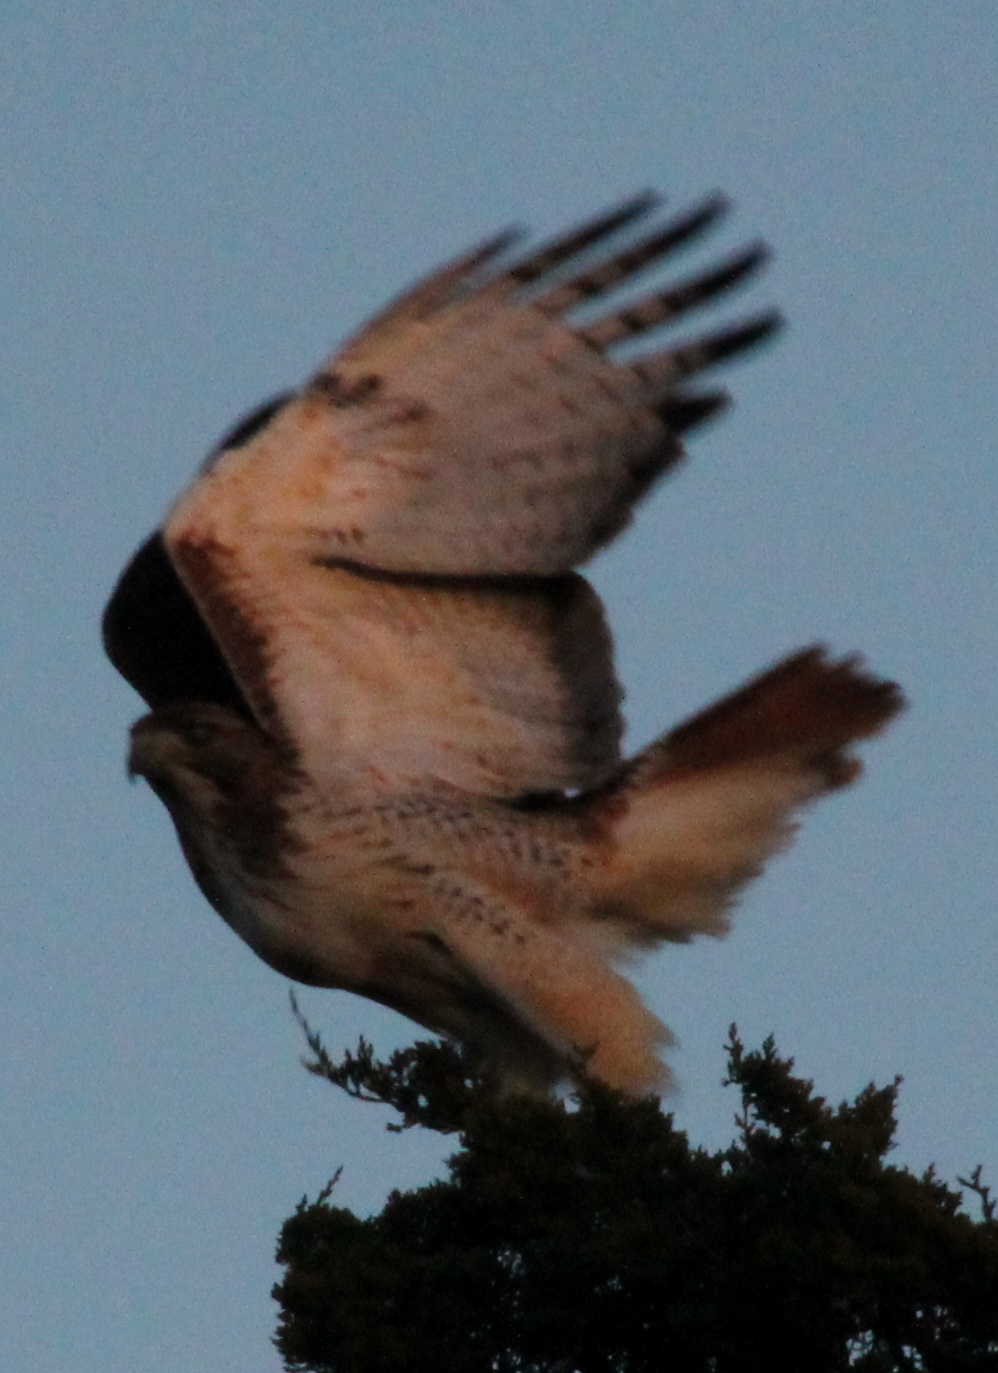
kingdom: Animalia
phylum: Chordata
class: Aves
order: Accipitriformes
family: Accipitridae
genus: Buteo
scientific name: Buteo jamaicensis
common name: Red-tailed hawk
